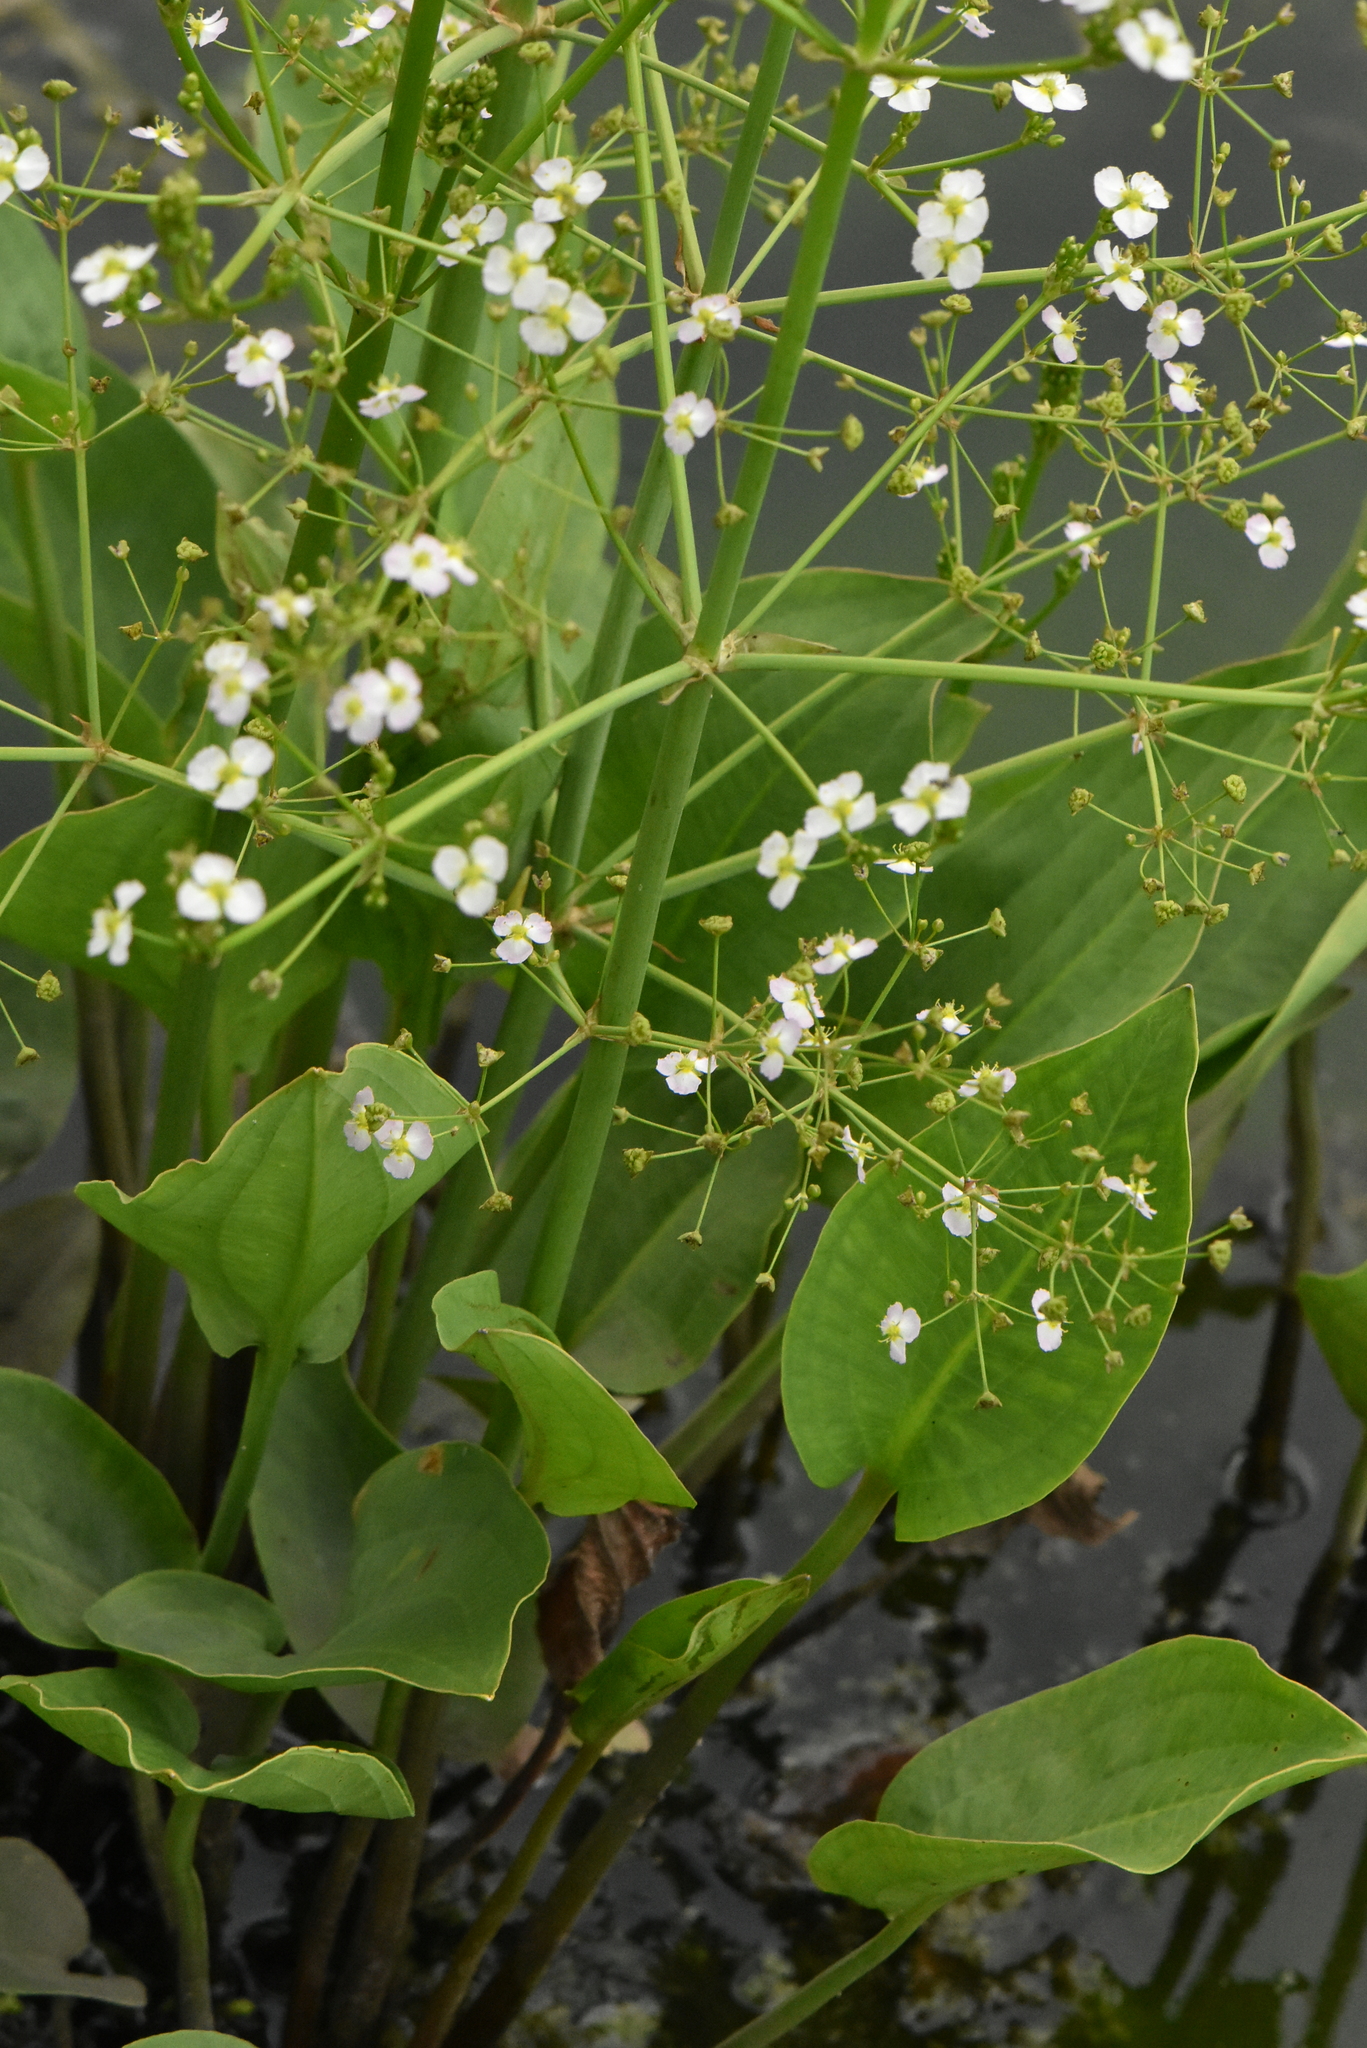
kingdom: Plantae
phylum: Tracheophyta
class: Liliopsida
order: Alismatales
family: Alismataceae
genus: Alisma
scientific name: Alisma plantago-aquatica
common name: Water-plantain
